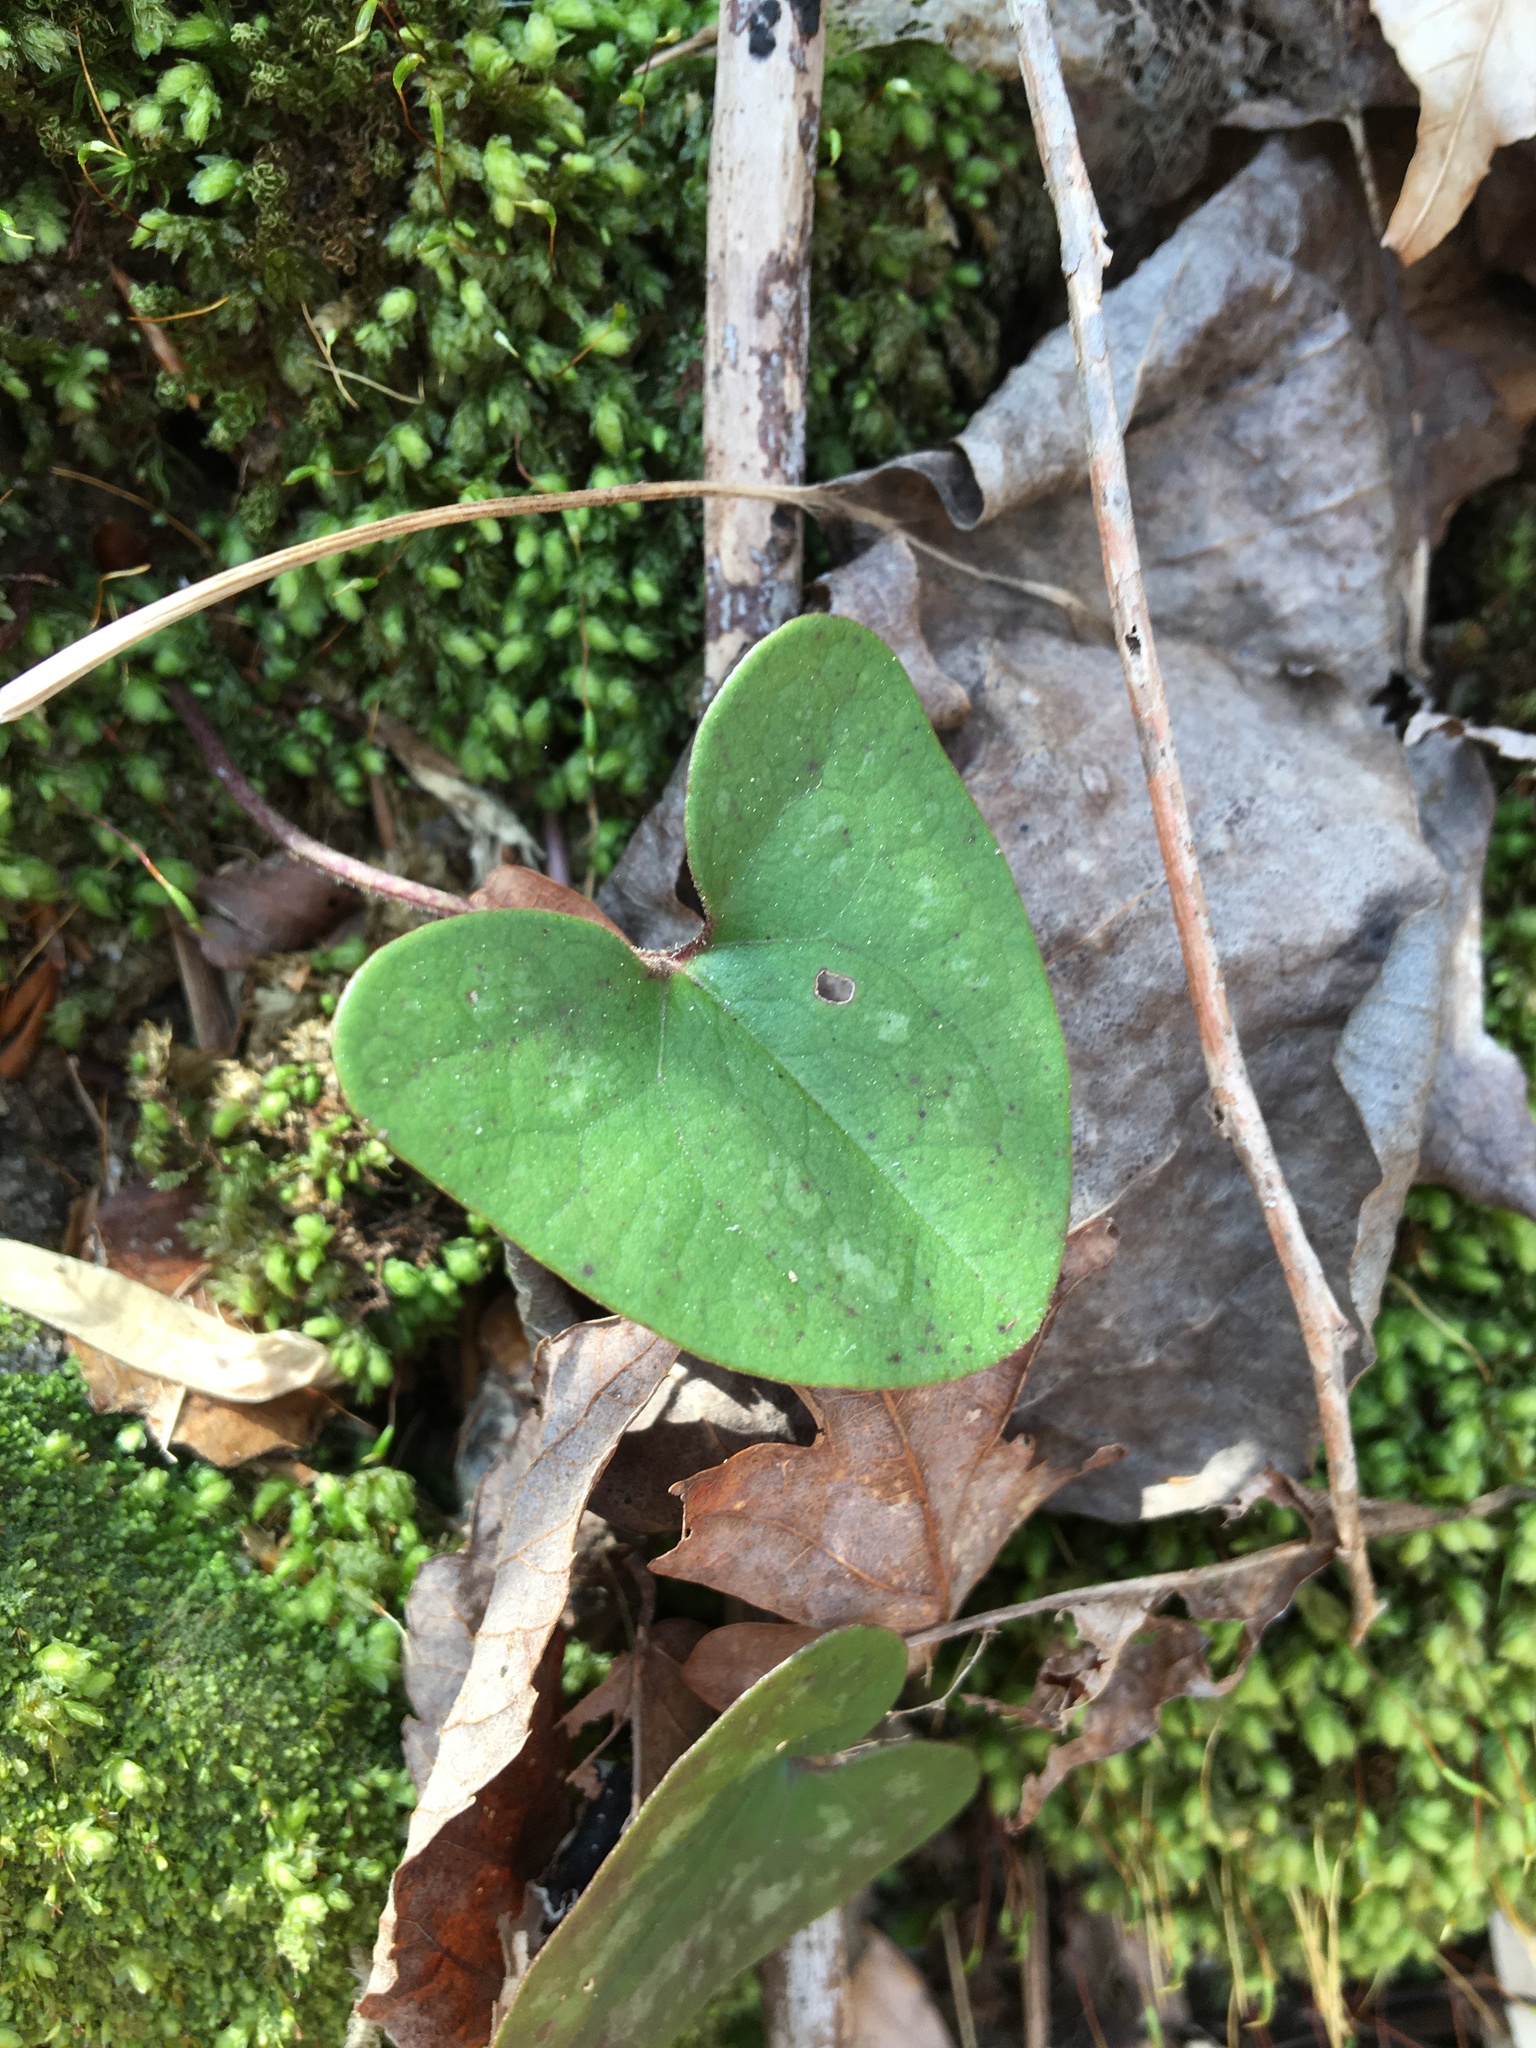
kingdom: Plantae
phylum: Tracheophyta
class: Magnoliopsida
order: Piperales
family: Aristolochiaceae
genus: Hexastylis
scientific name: Hexastylis arifolia
